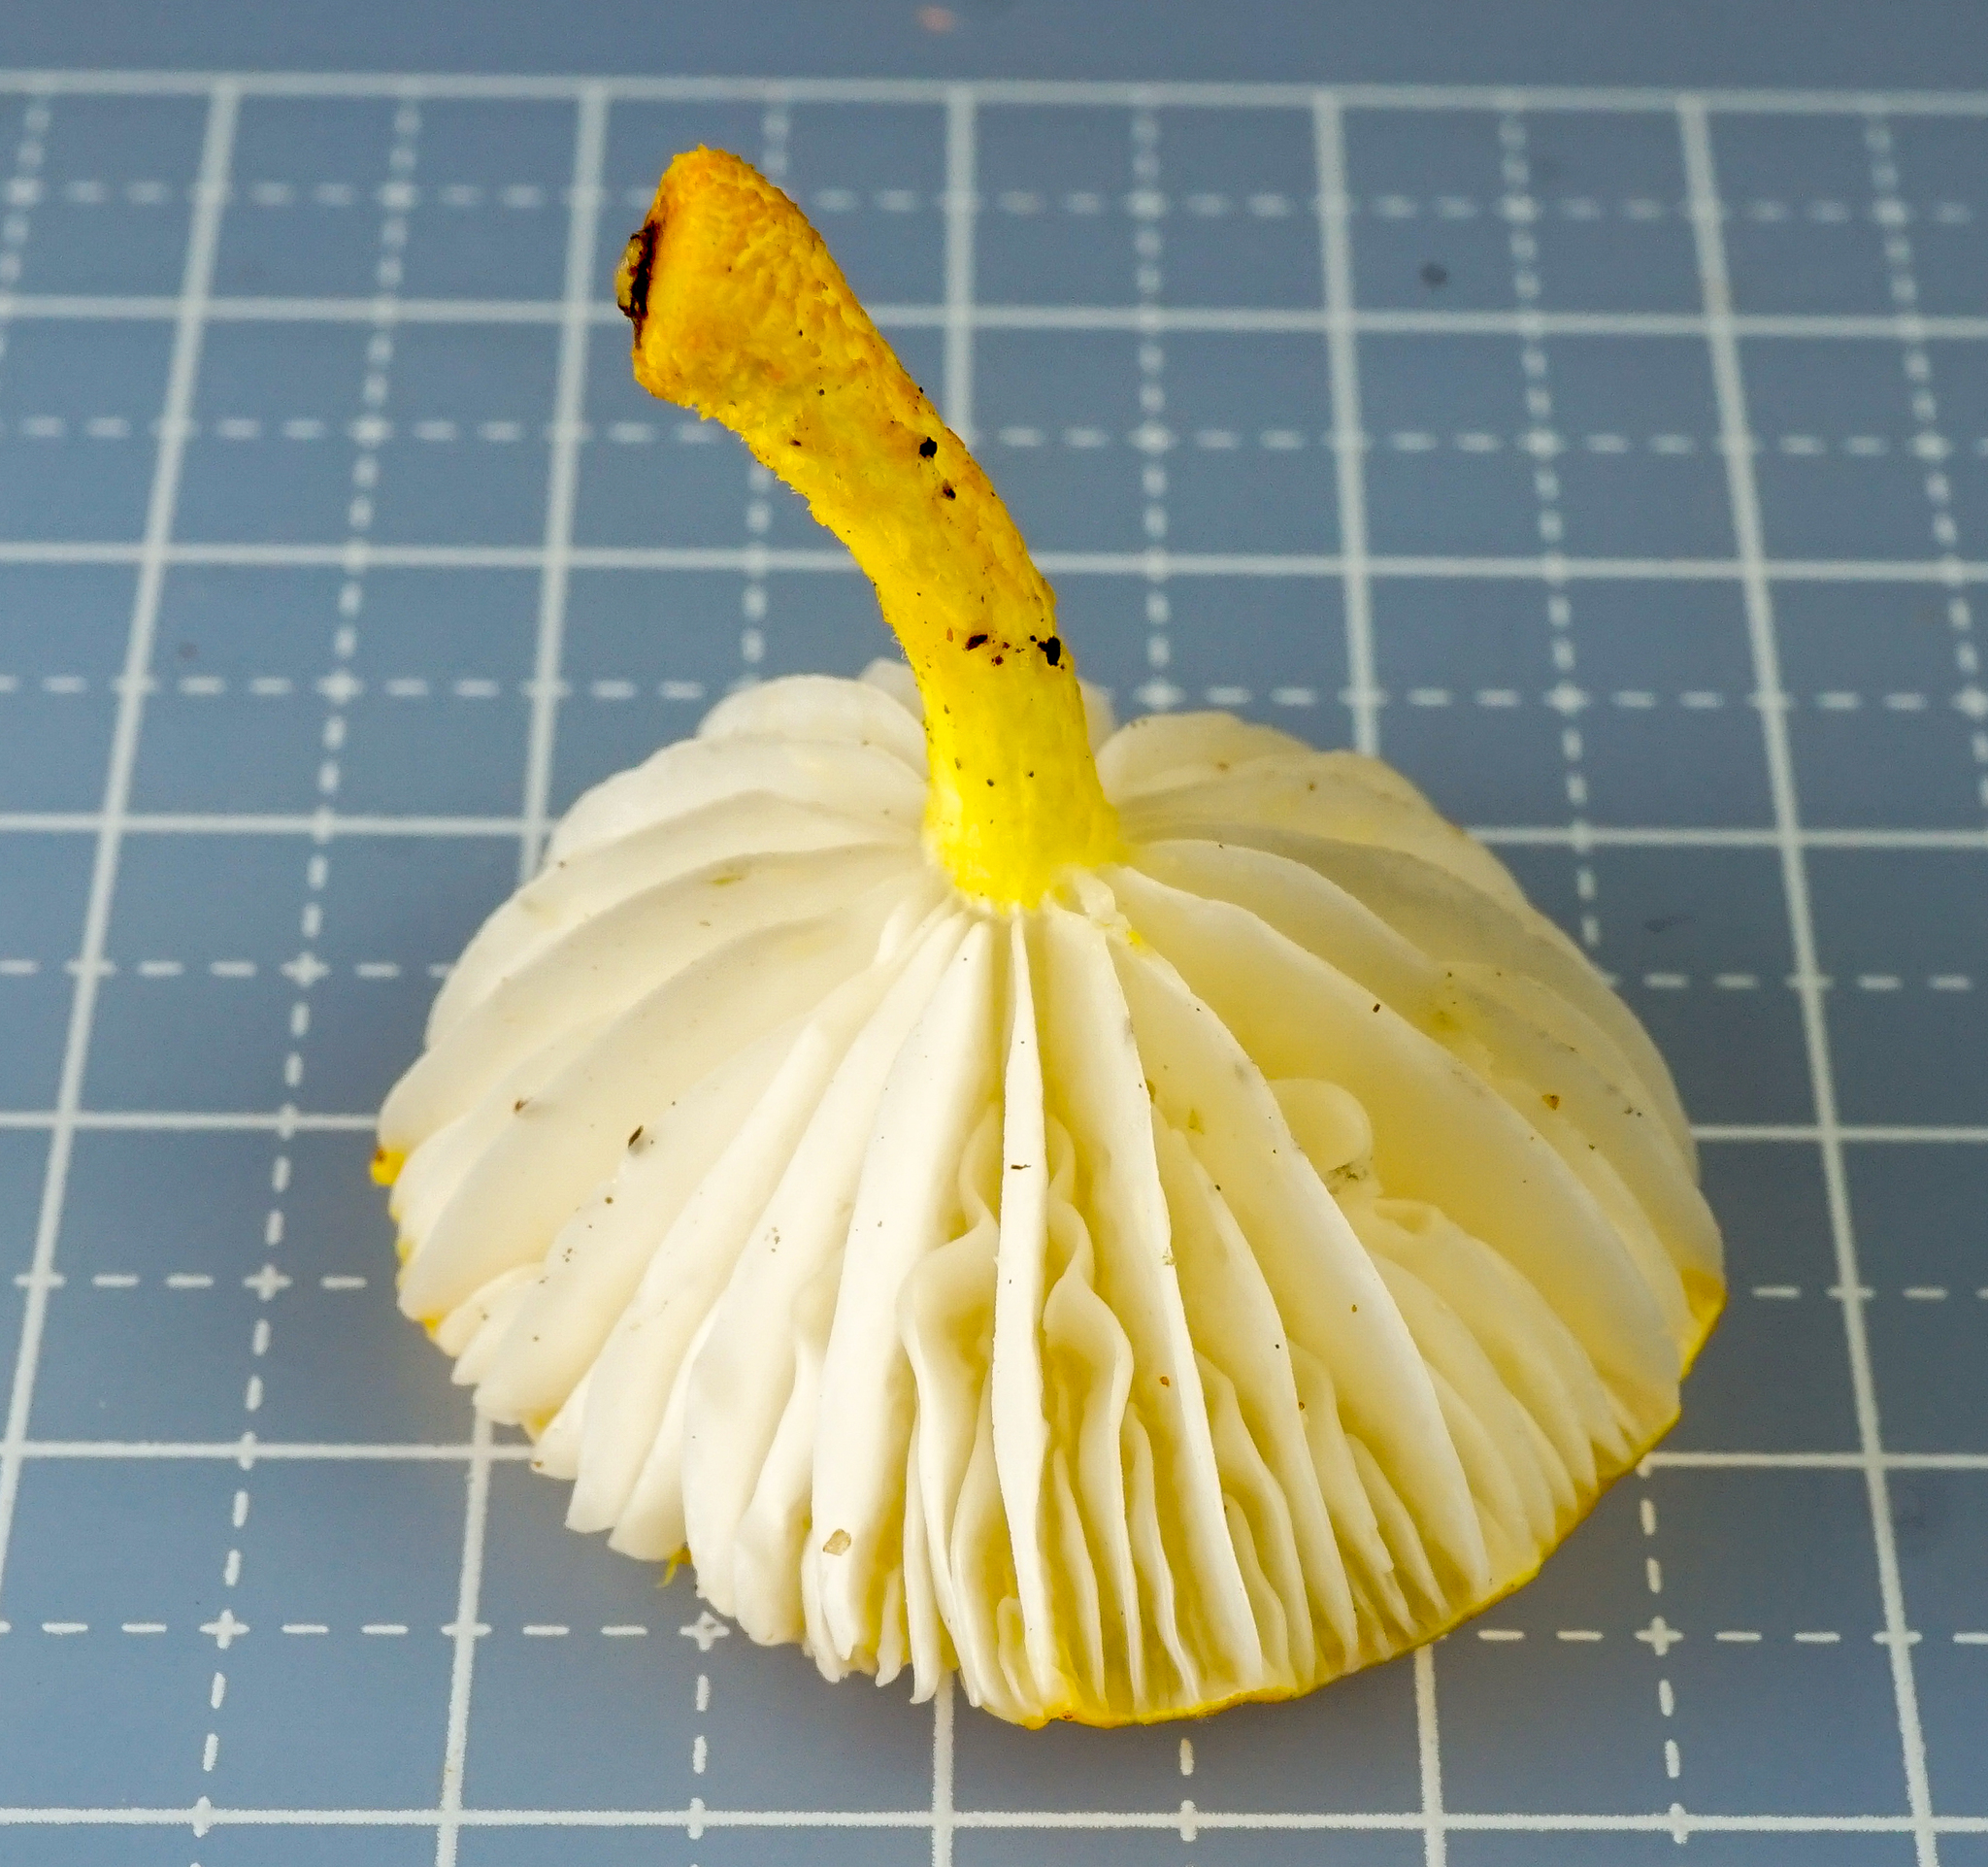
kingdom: Fungi
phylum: Basidiomycota
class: Agaricomycetes
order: Agaricales
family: Physalacriaceae
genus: Cyptotrama
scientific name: Cyptotrama chrysopepla
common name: Golden coincap
